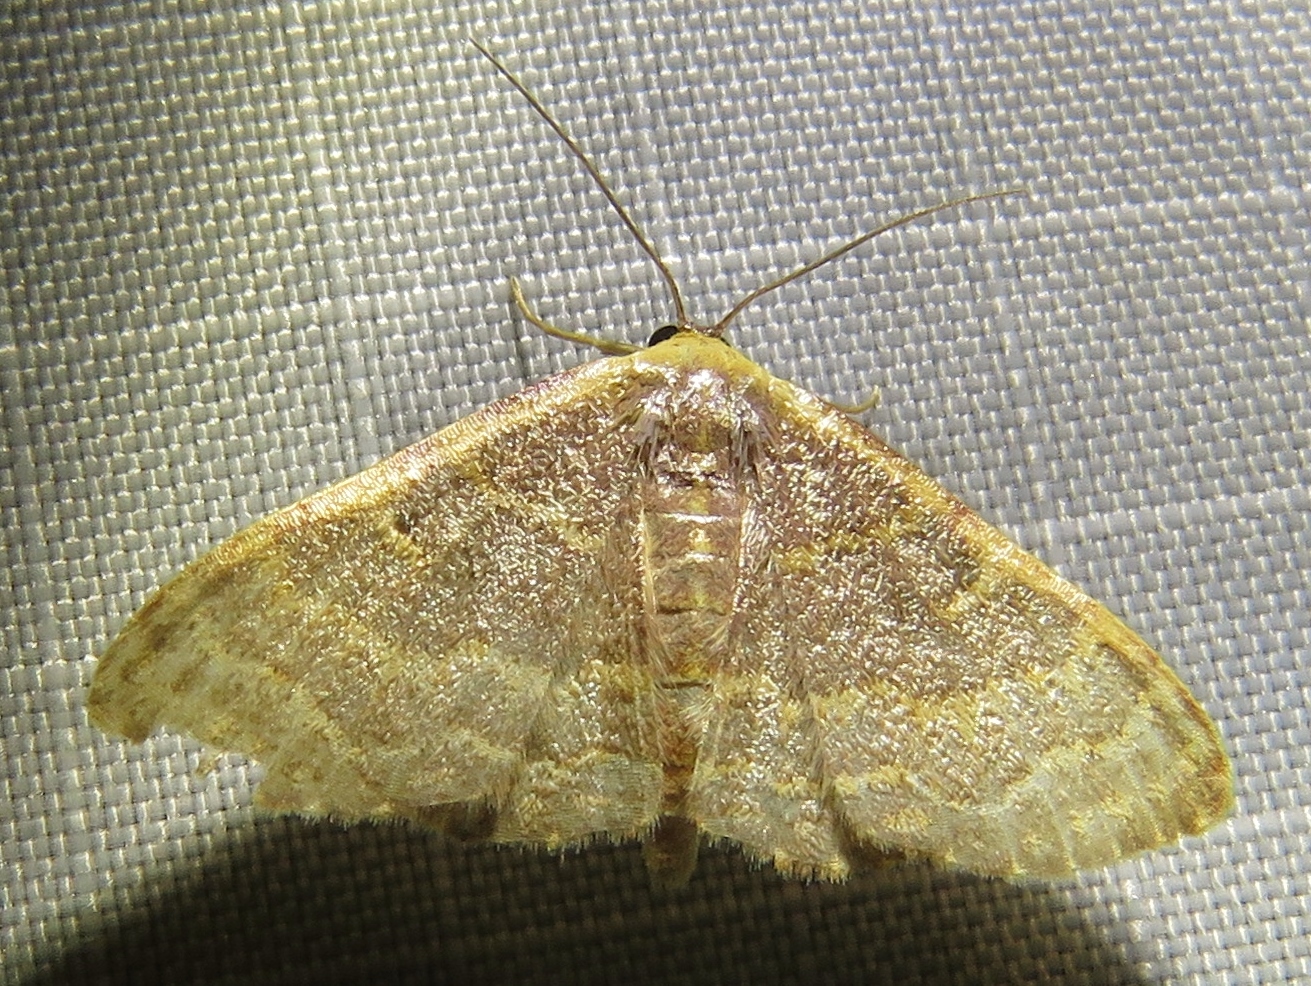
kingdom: Animalia
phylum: Arthropoda
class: Insecta
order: Lepidoptera
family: Geometridae
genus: Leptostales
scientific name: Leptostales pannaria
